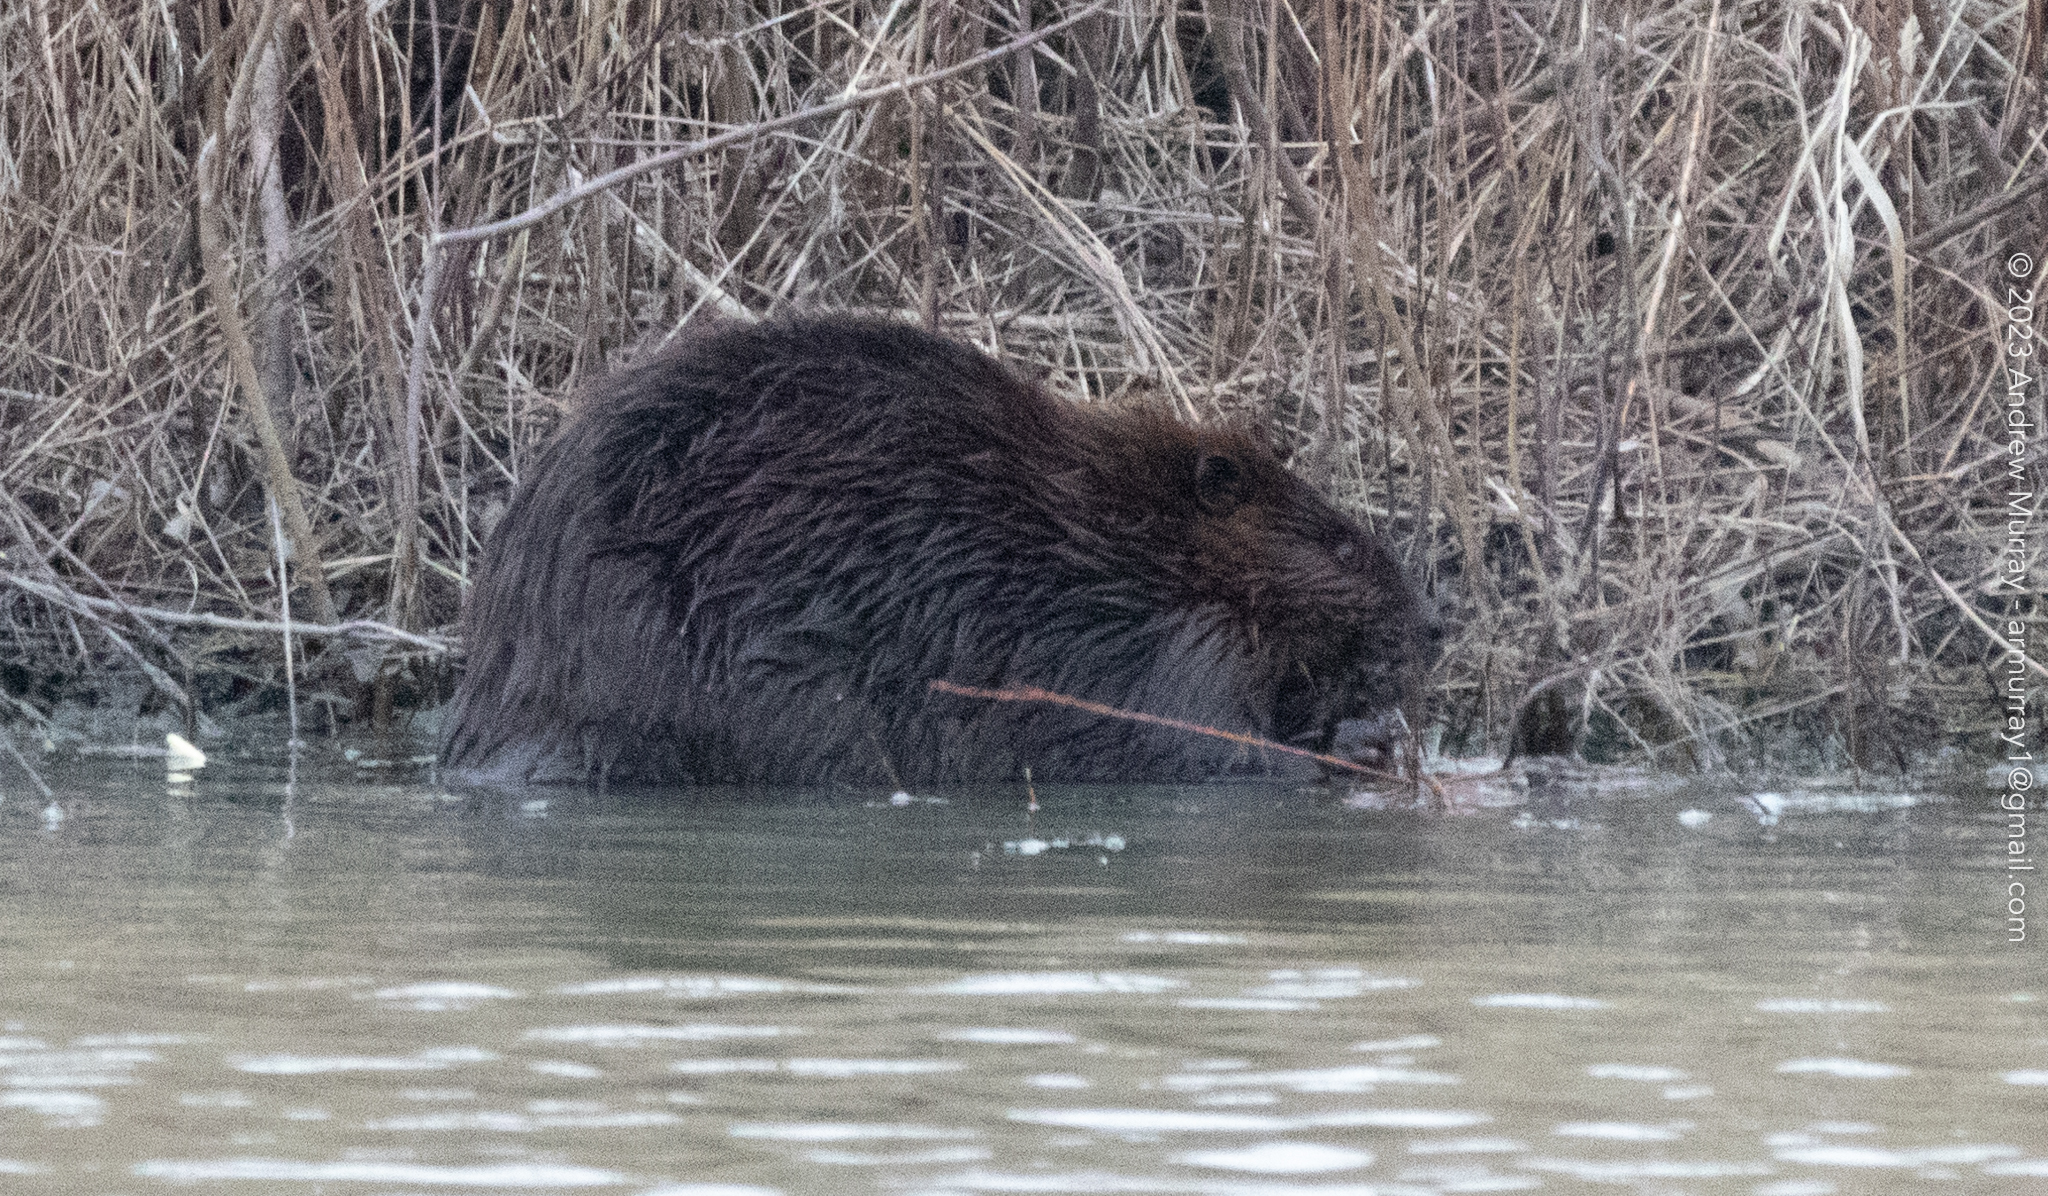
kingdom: Animalia
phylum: Chordata
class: Mammalia
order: Rodentia
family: Castoridae
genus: Castor
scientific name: Castor canadensis
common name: American beaver
